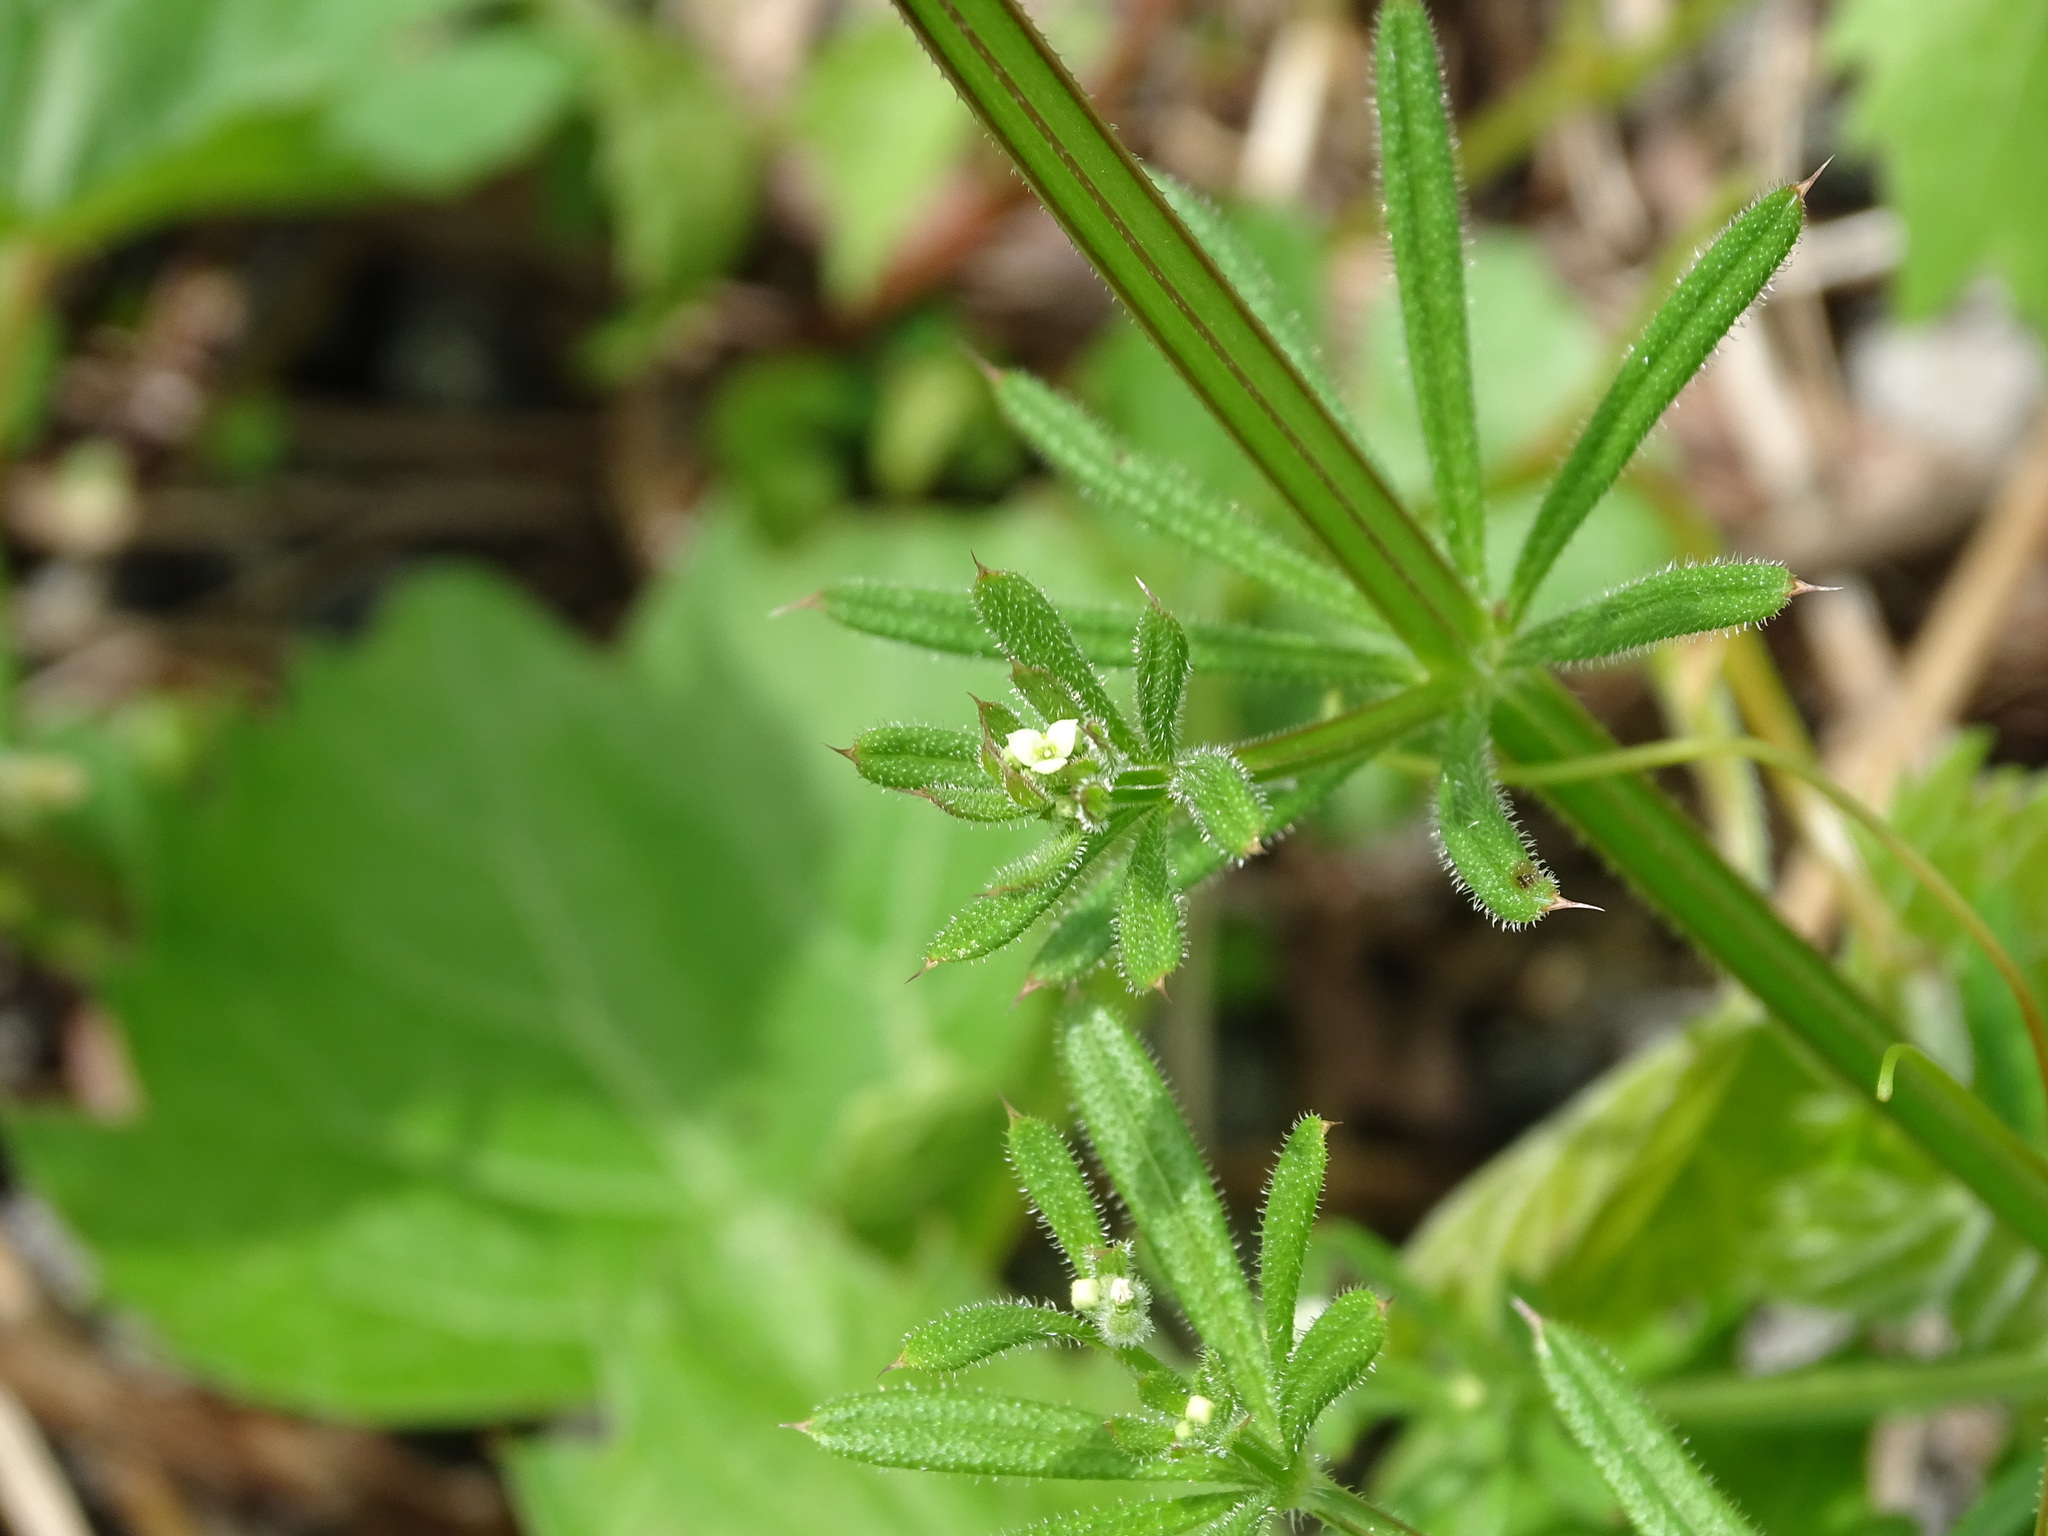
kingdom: Plantae
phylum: Tracheophyta
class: Magnoliopsida
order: Gentianales
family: Rubiaceae
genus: Galium
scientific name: Galium aparine
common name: Cleavers
